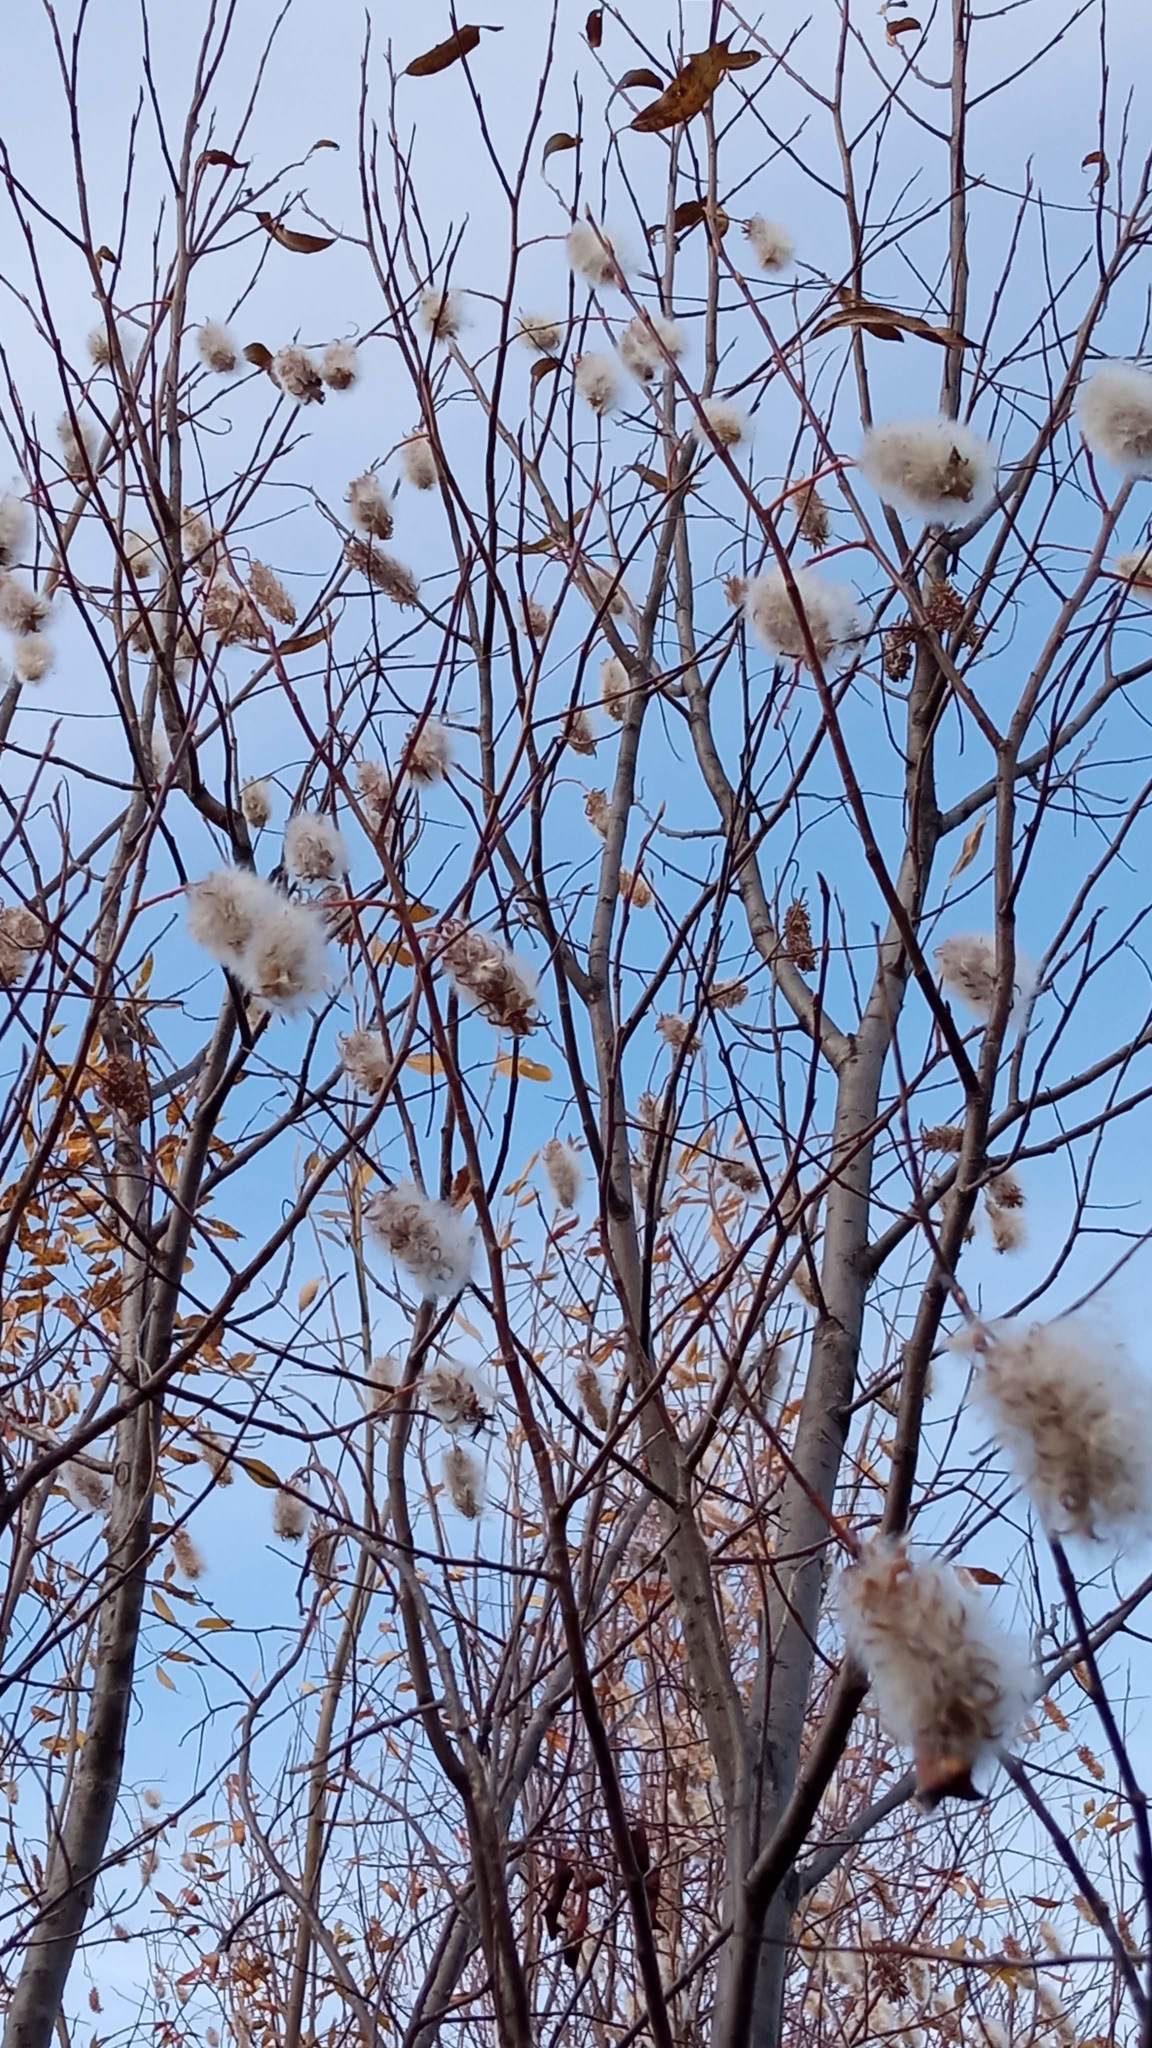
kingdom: Plantae
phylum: Tracheophyta
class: Magnoliopsida
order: Malpighiales
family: Salicaceae
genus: Salix
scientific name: Salix pentandra
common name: Bay willow
